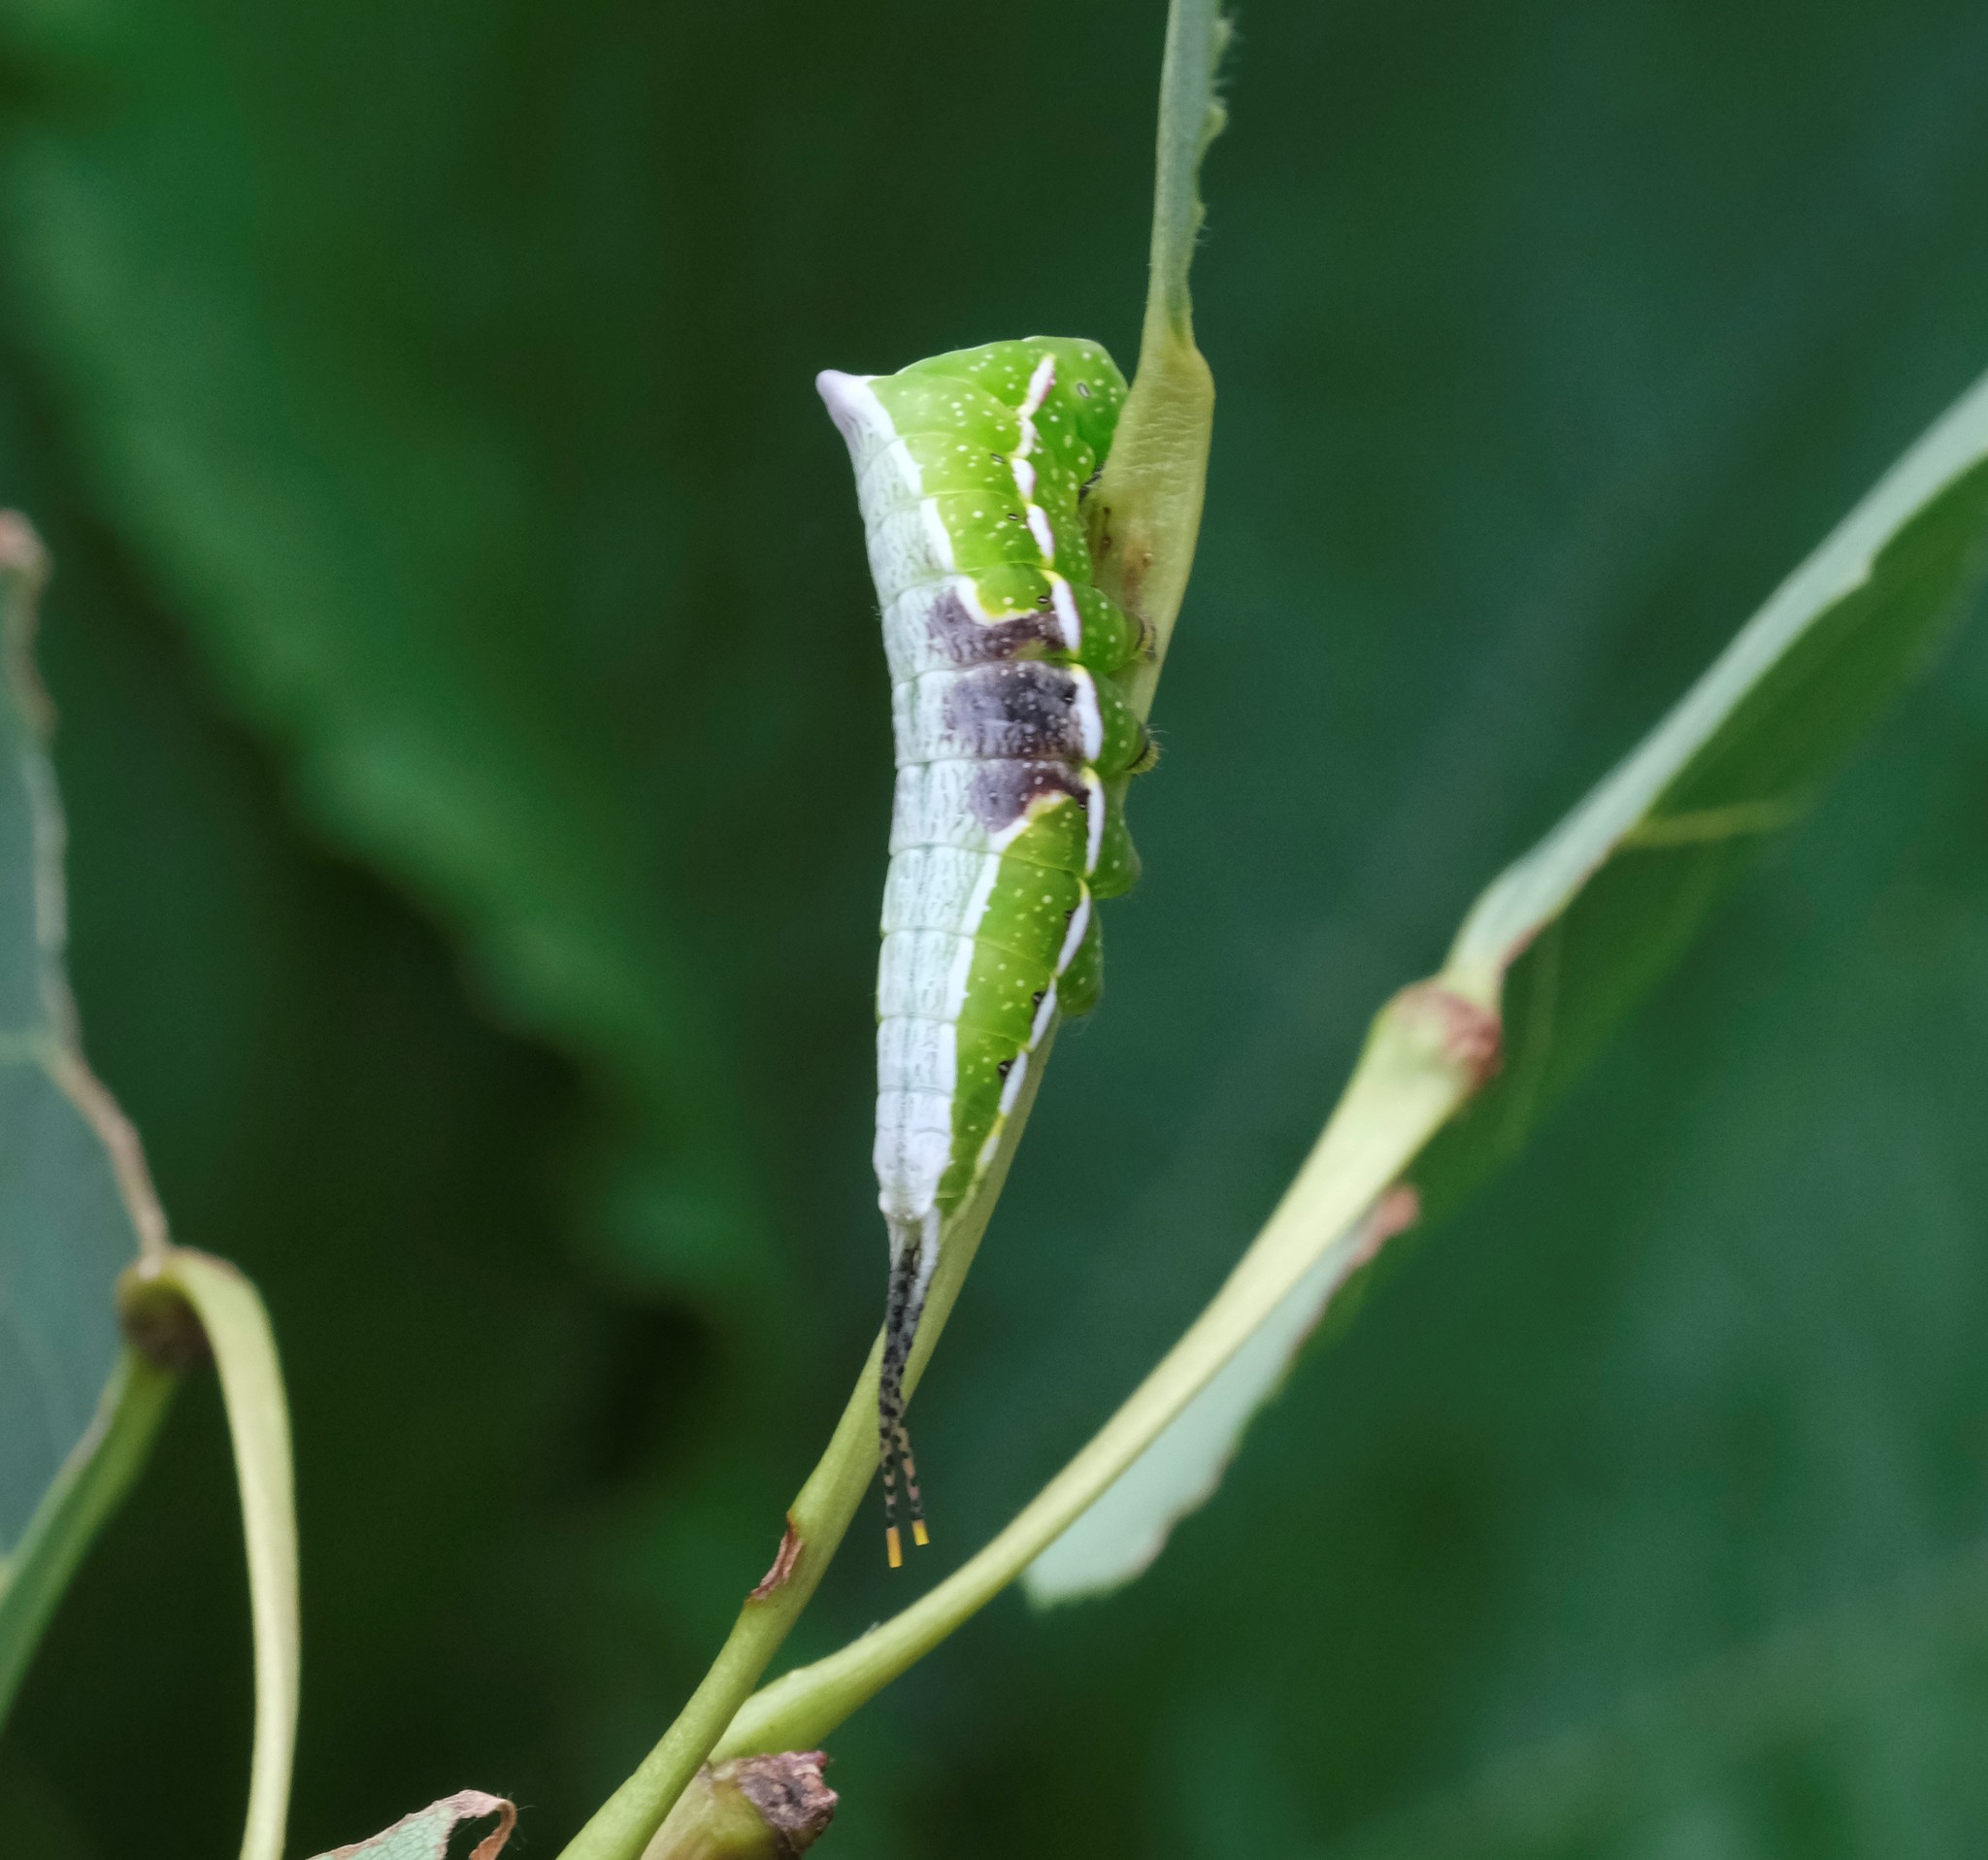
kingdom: Animalia
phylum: Arthropoda
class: Insecta
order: Lepidoptera
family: Notodontidae
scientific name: Notodontidae
